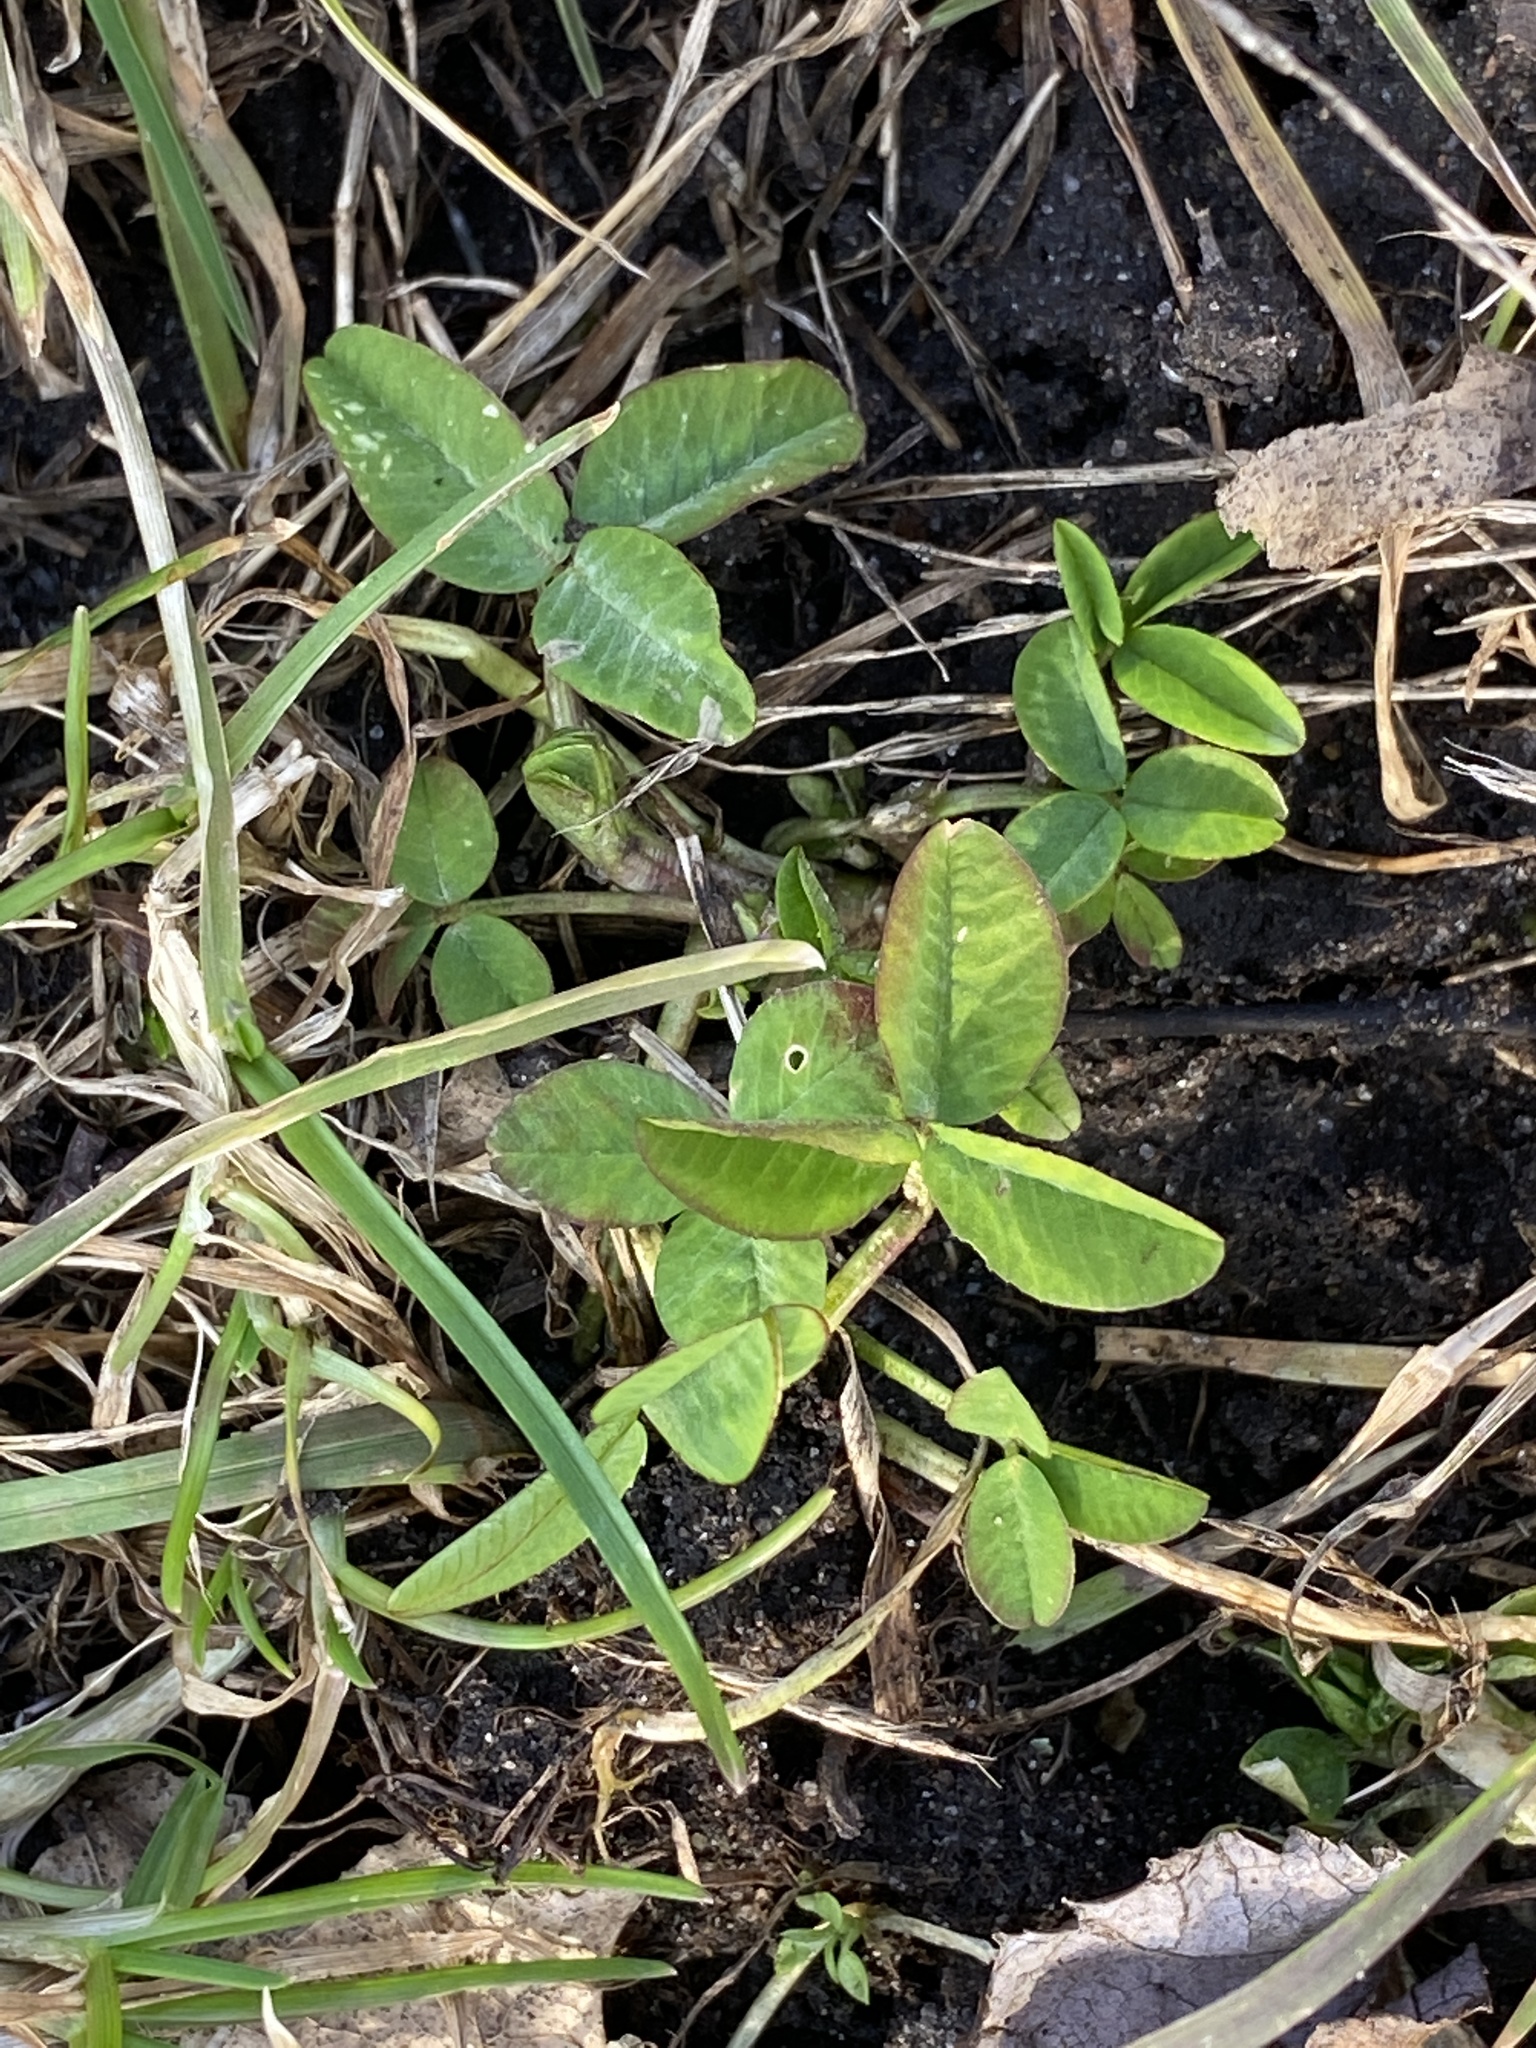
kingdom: Plantae
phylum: Tracheophyta
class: Magnoliopsida
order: Fabales
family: Fabaceae
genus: Trifolium
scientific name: Trifolium repens
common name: White clover
